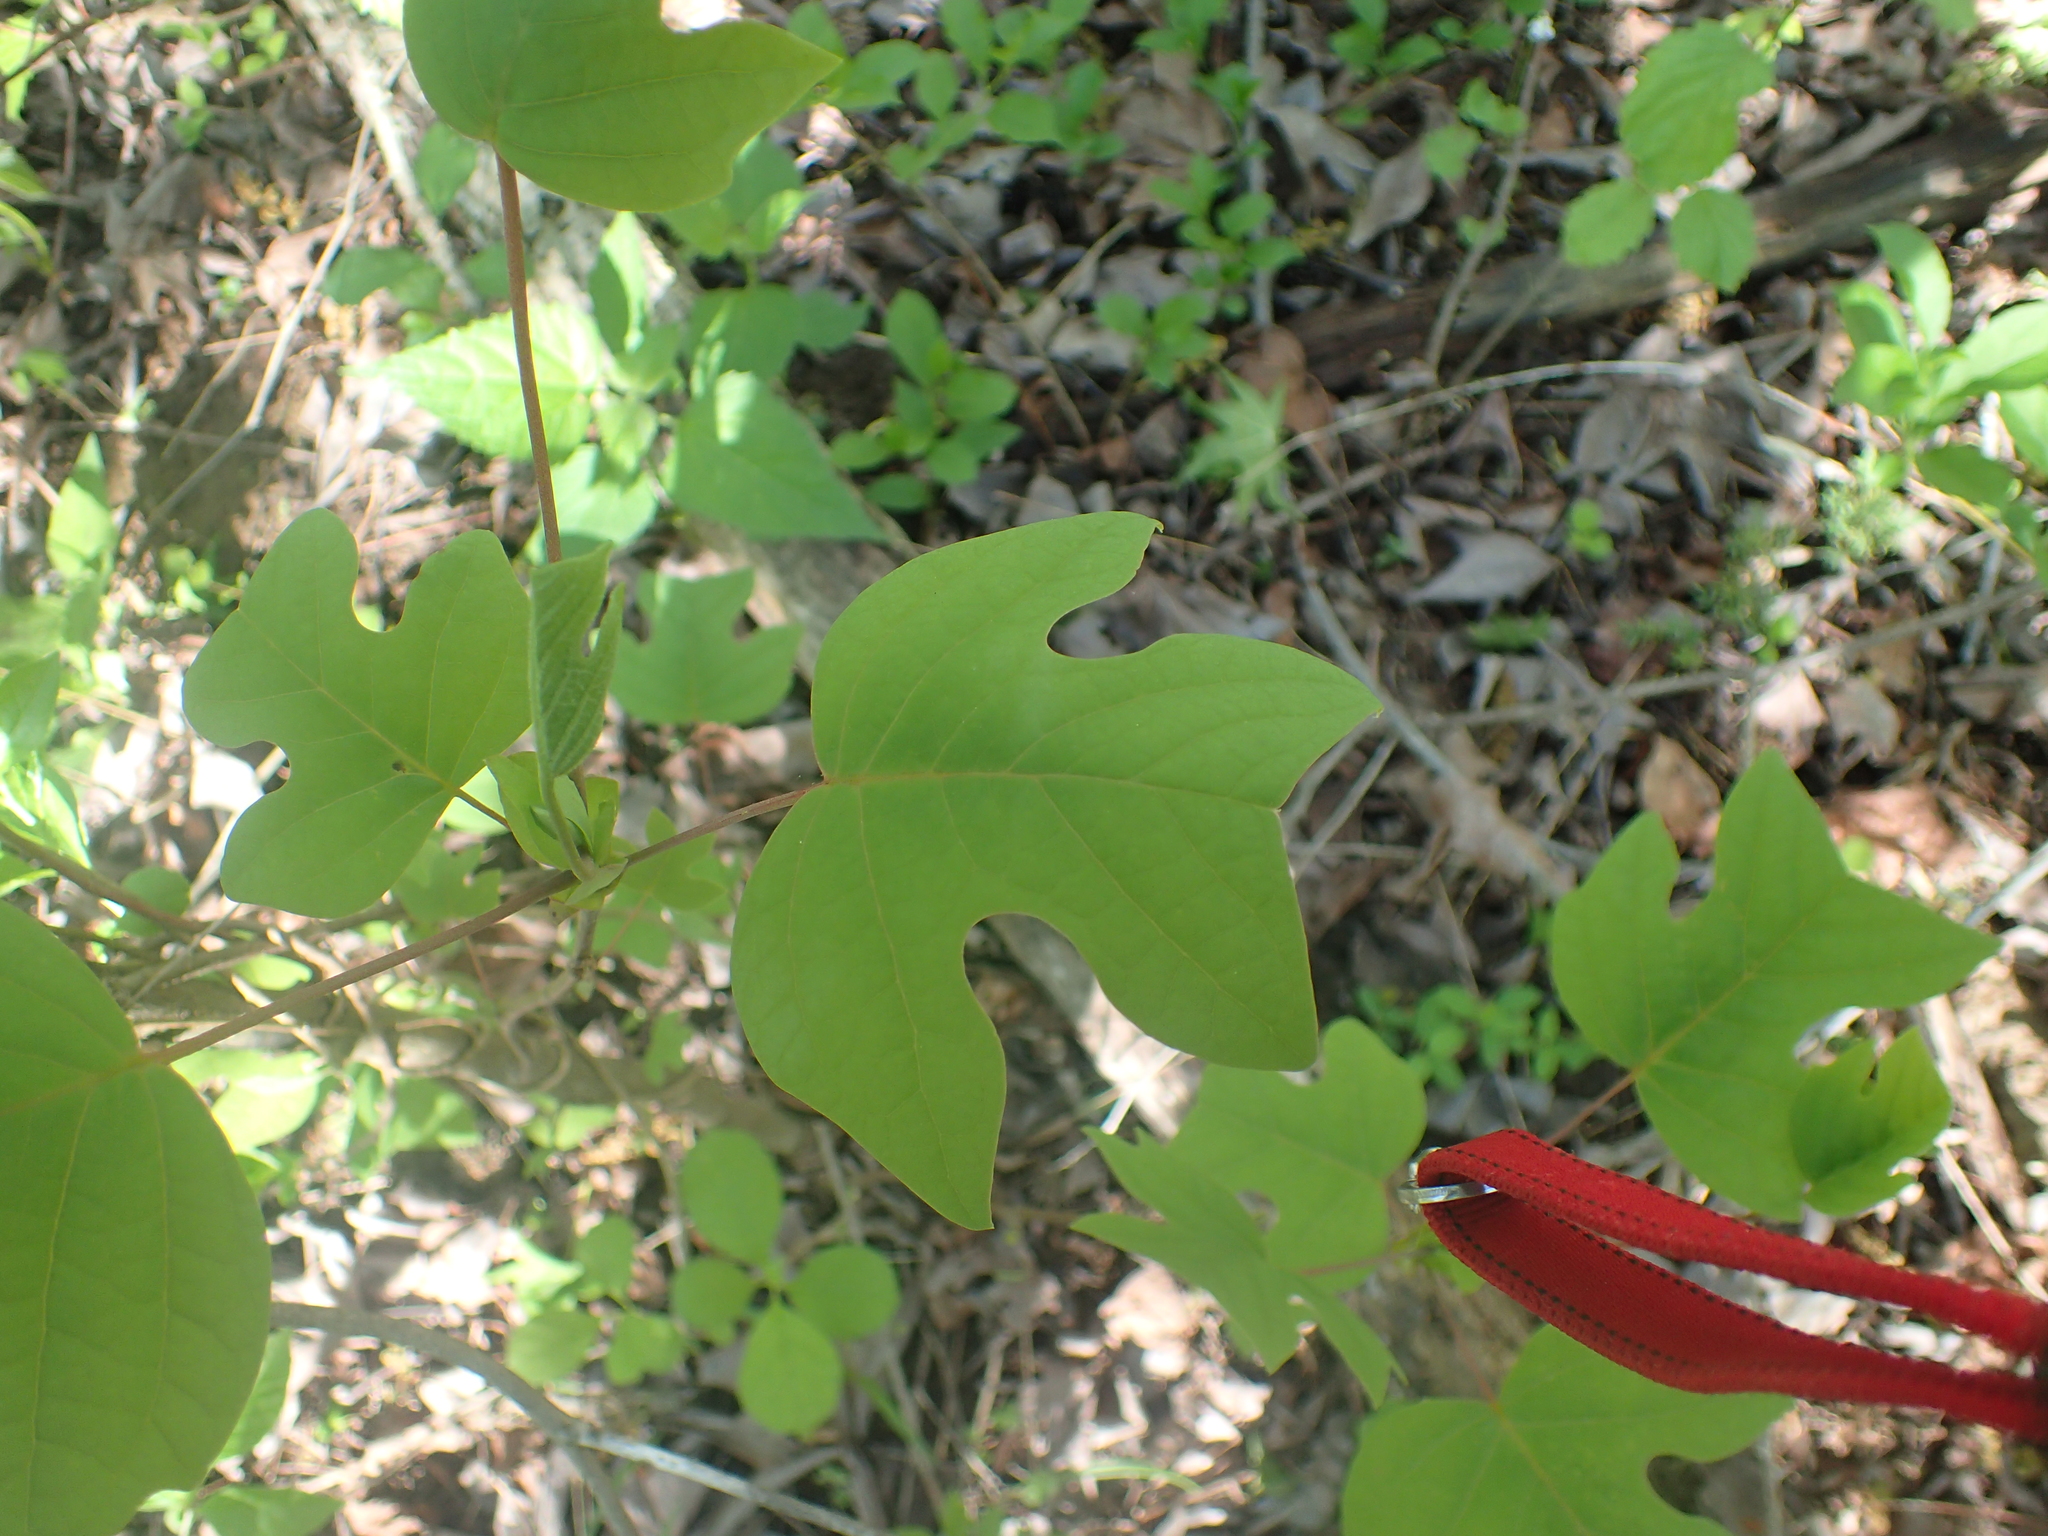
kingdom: Plantae
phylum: Tracheophyta
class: Magnoliopsida
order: Magnoliales
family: Magnoliaceae
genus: Liriodendron
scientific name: Liriodendron tulipifera
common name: Tulip tree
